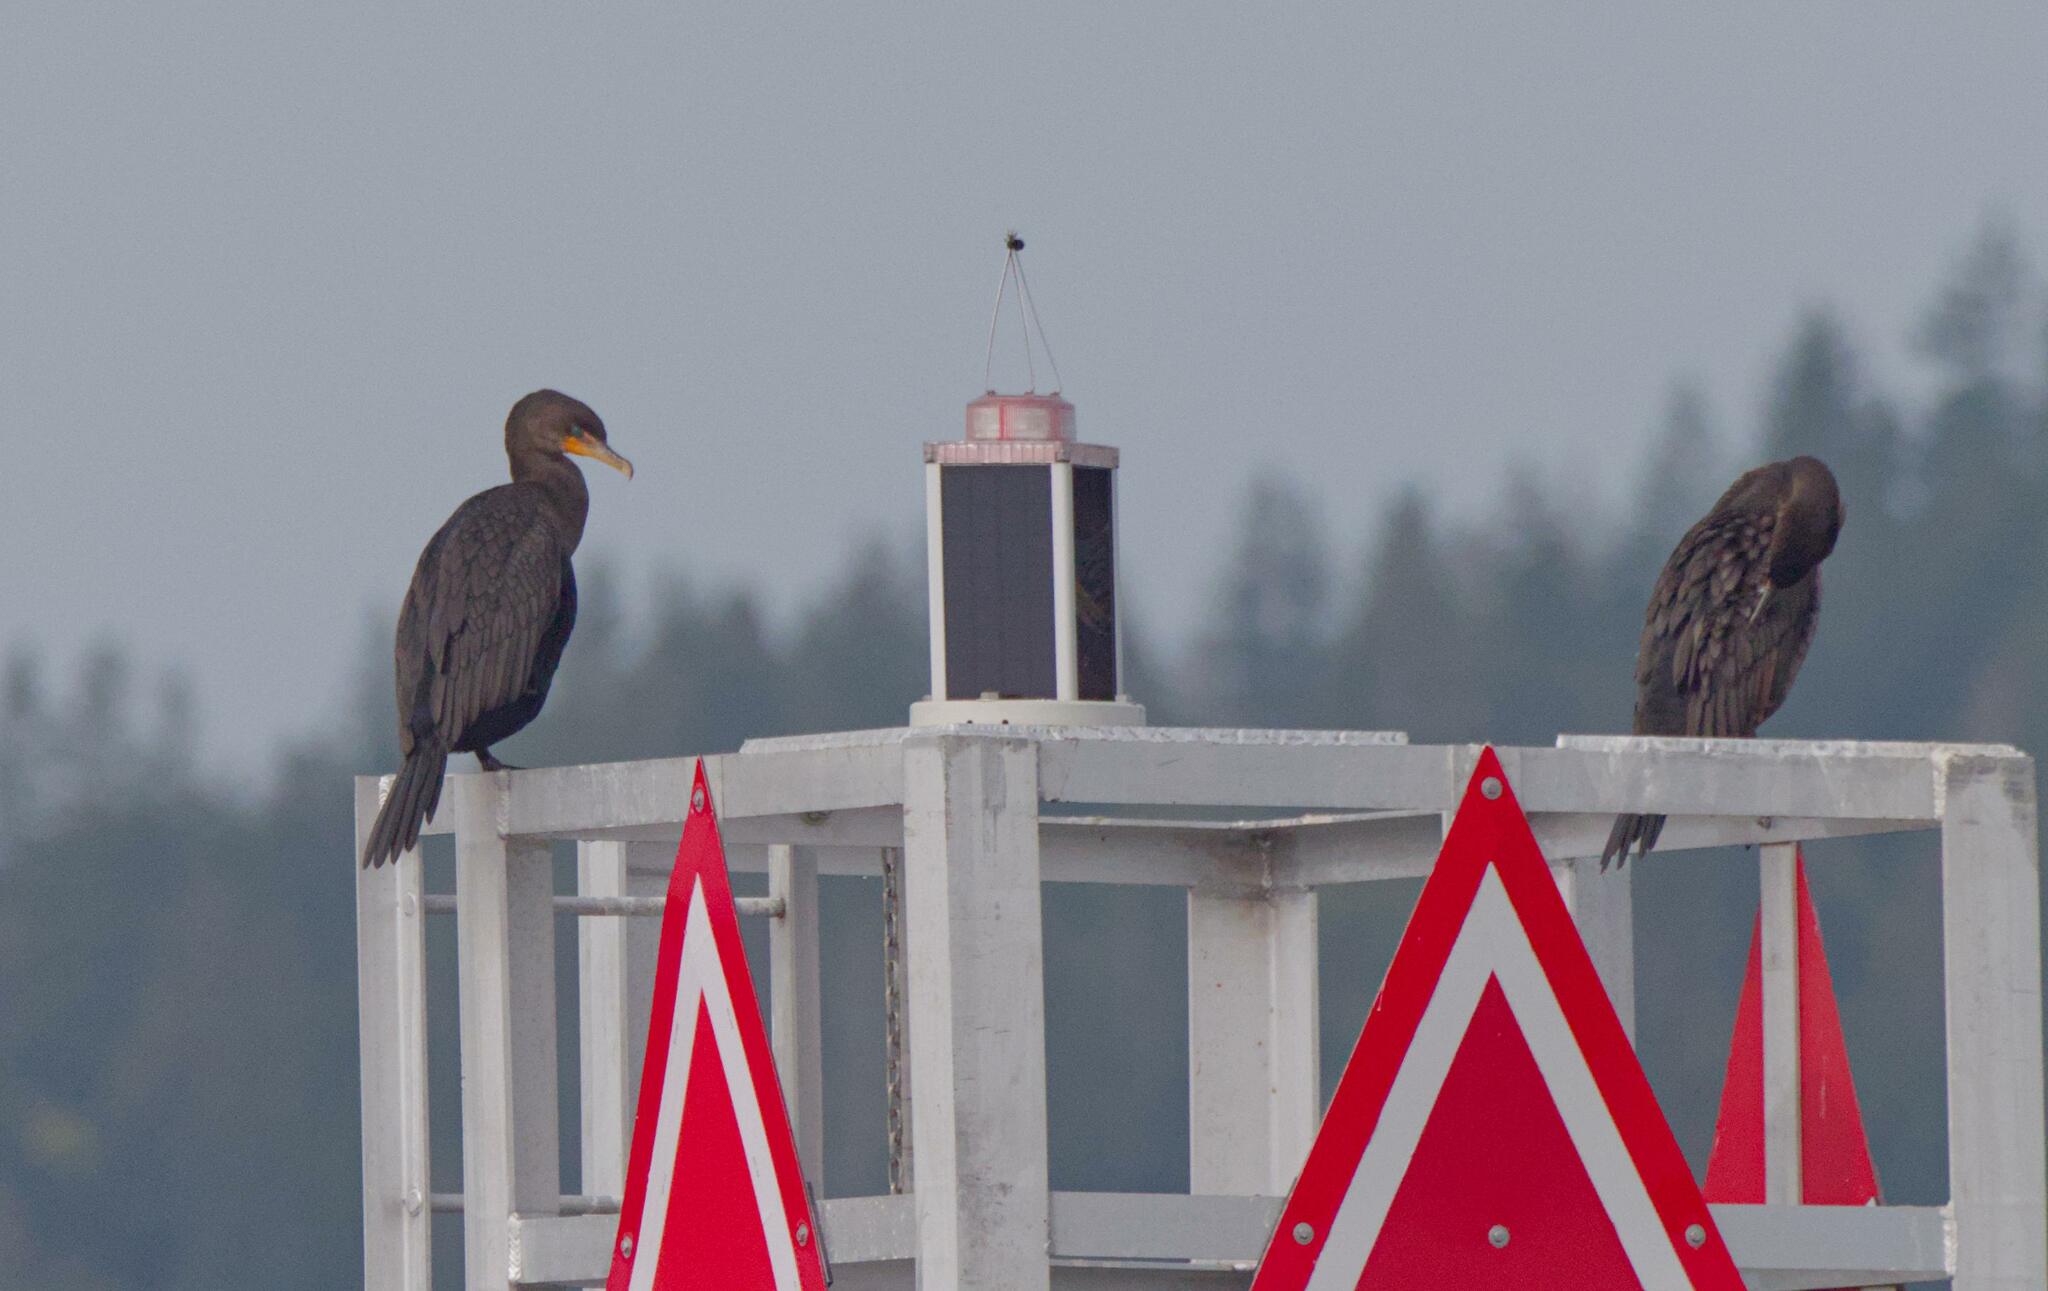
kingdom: Animalia
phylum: Chordata
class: Aves
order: Suliformes
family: Phalacrocoracidae
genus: Phalacrocorax
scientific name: Phalacrocorax auritus
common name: Double-crested cormorant
